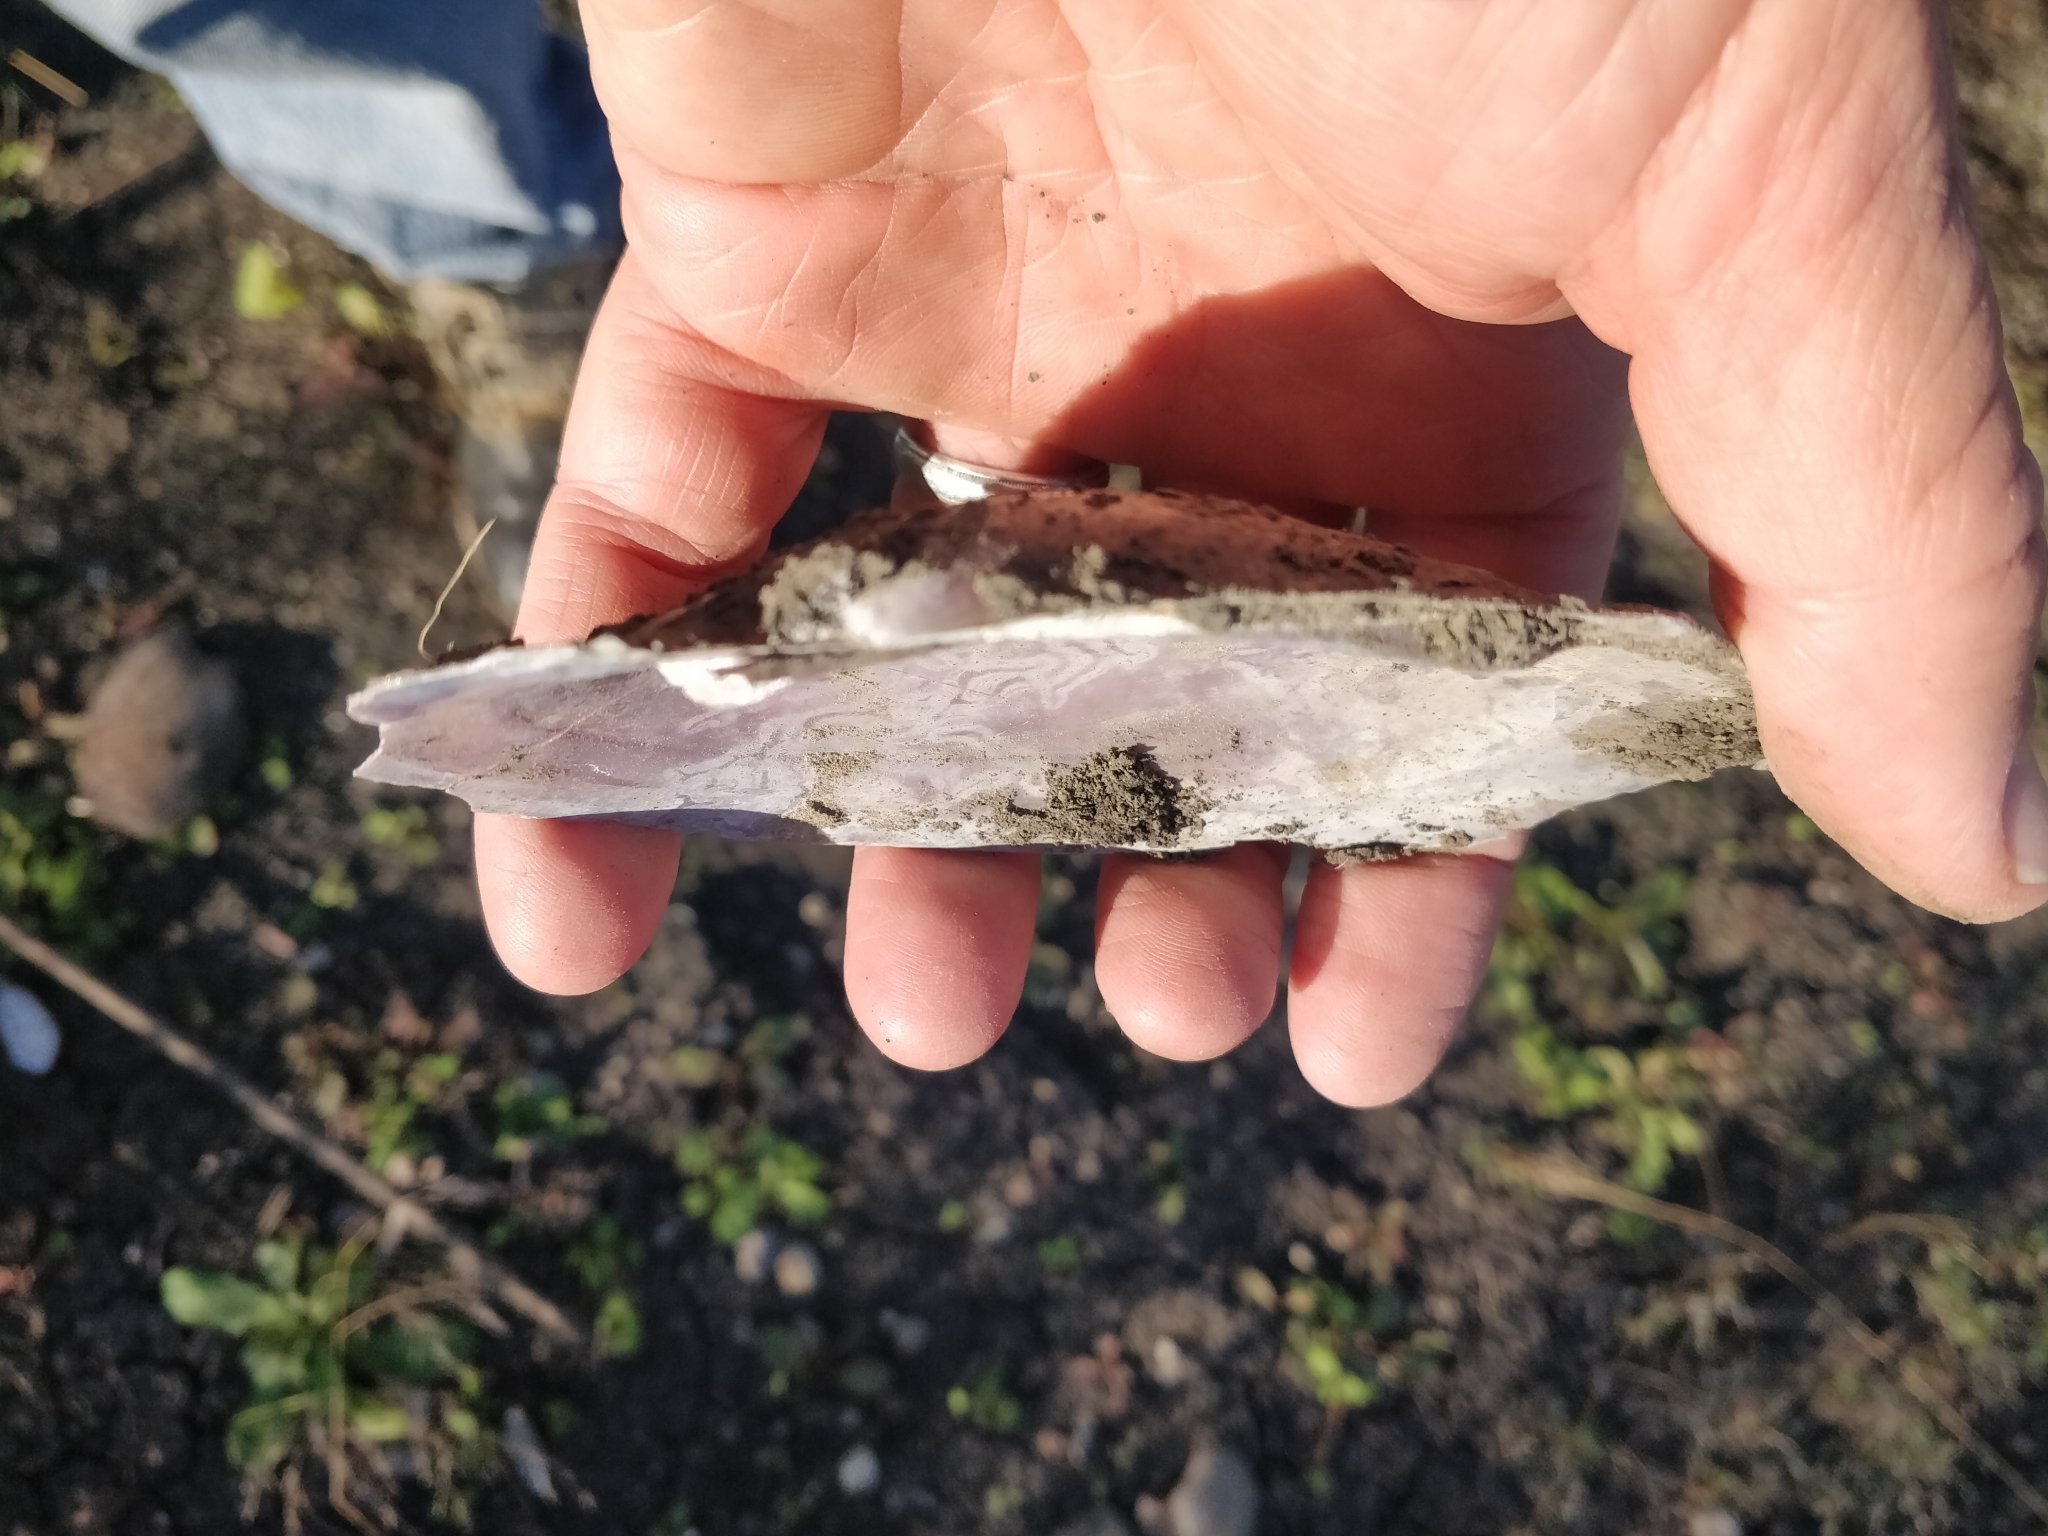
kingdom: Animalia
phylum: Mollusca
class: Bivalvia
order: Unionida
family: Unionidae
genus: Potamilus
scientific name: Potamilus ohiensis
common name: Pink papershell
